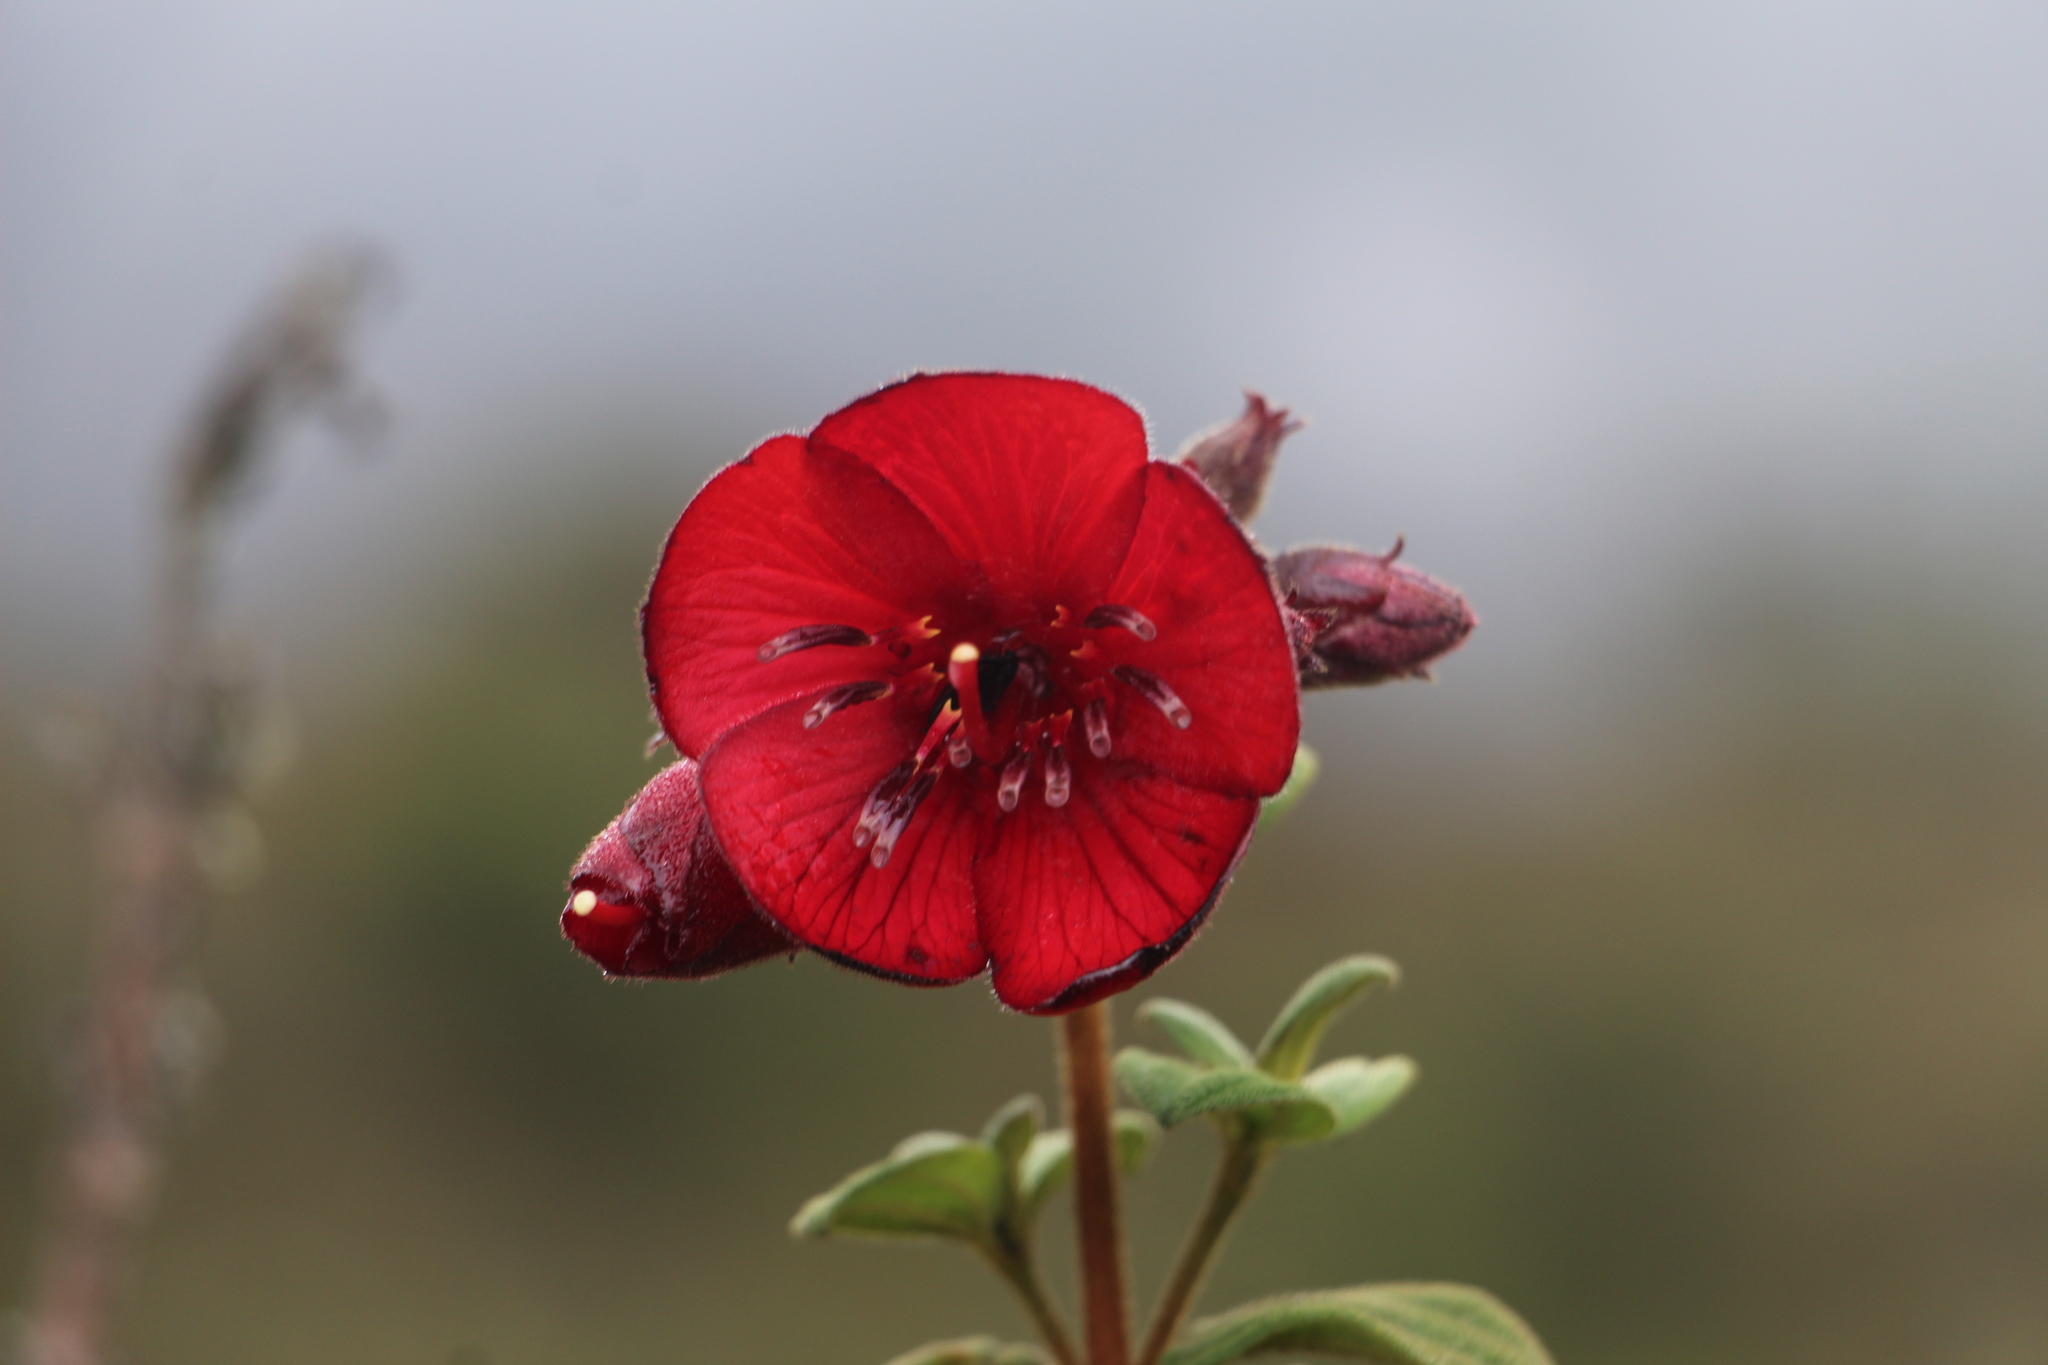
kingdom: Plantae
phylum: Tracheophyta
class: Magnoliopsida
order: Myrtales
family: Melastomataceae
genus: Chaetogastra
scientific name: Chaetogastra grossa
